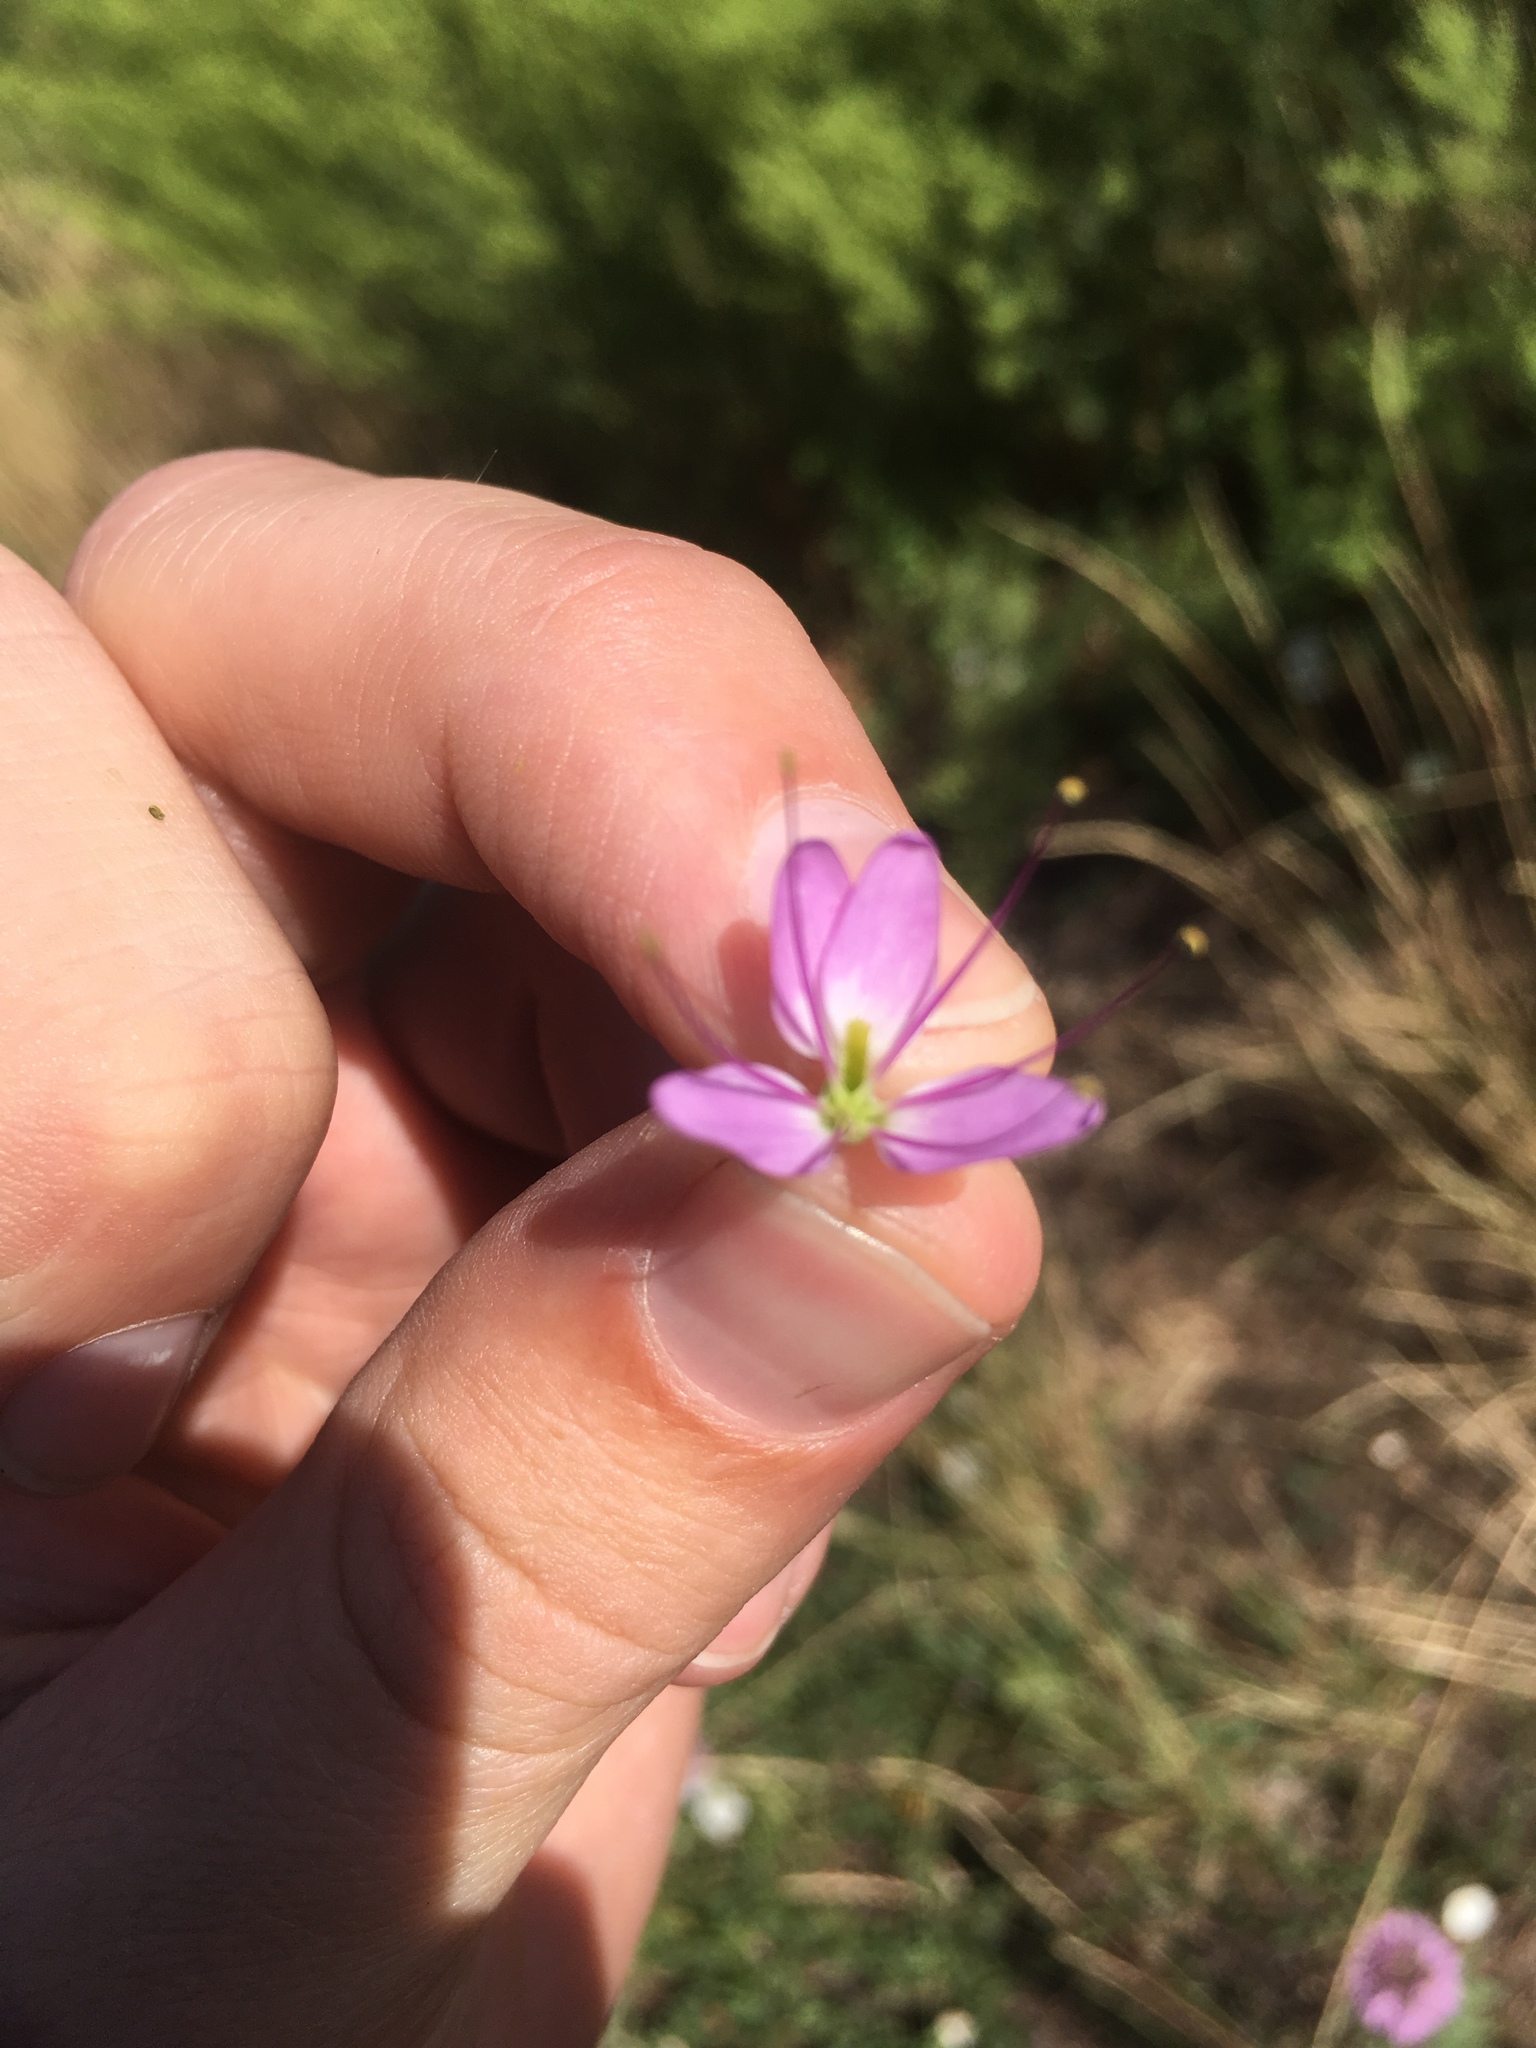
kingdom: Plantae
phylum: Tracheophyta
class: Magnoliopsida
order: Brassicales
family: Cleomaceae
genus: Cleomella
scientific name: Cleomella serrulata
